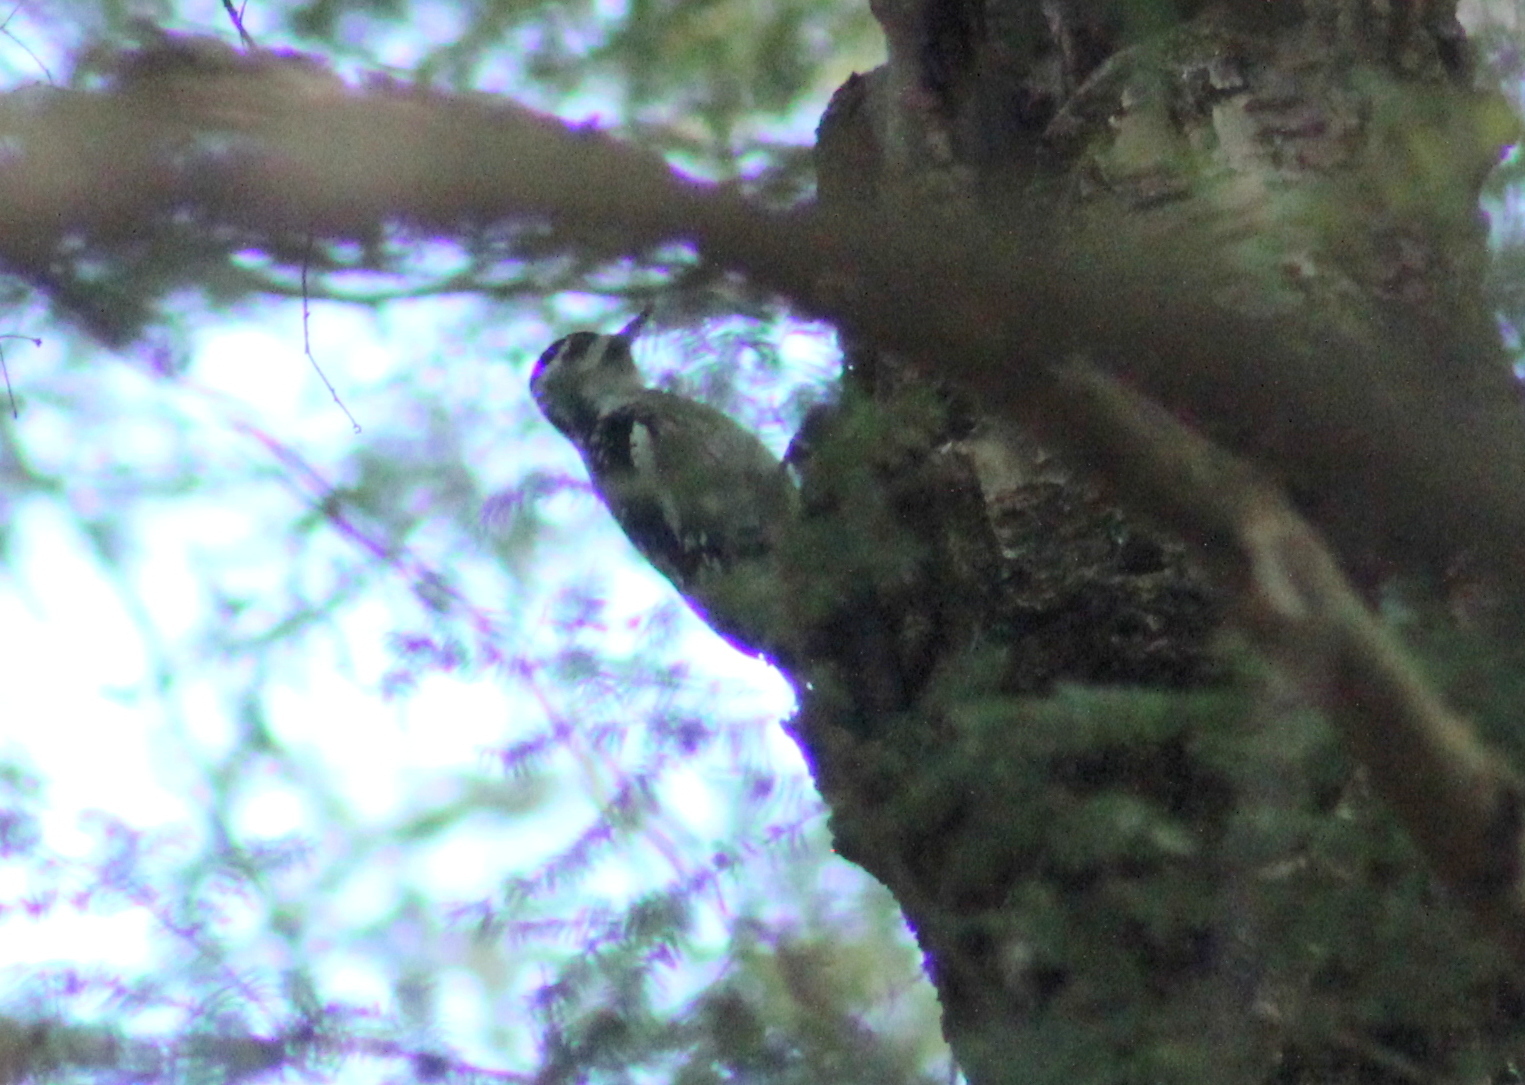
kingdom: Animalia
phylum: Chordata
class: Aves
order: Piciformes
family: Picidae
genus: Sphyrapicus
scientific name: Sphyrapicus varius
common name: Yellow-bellied sapsucker
